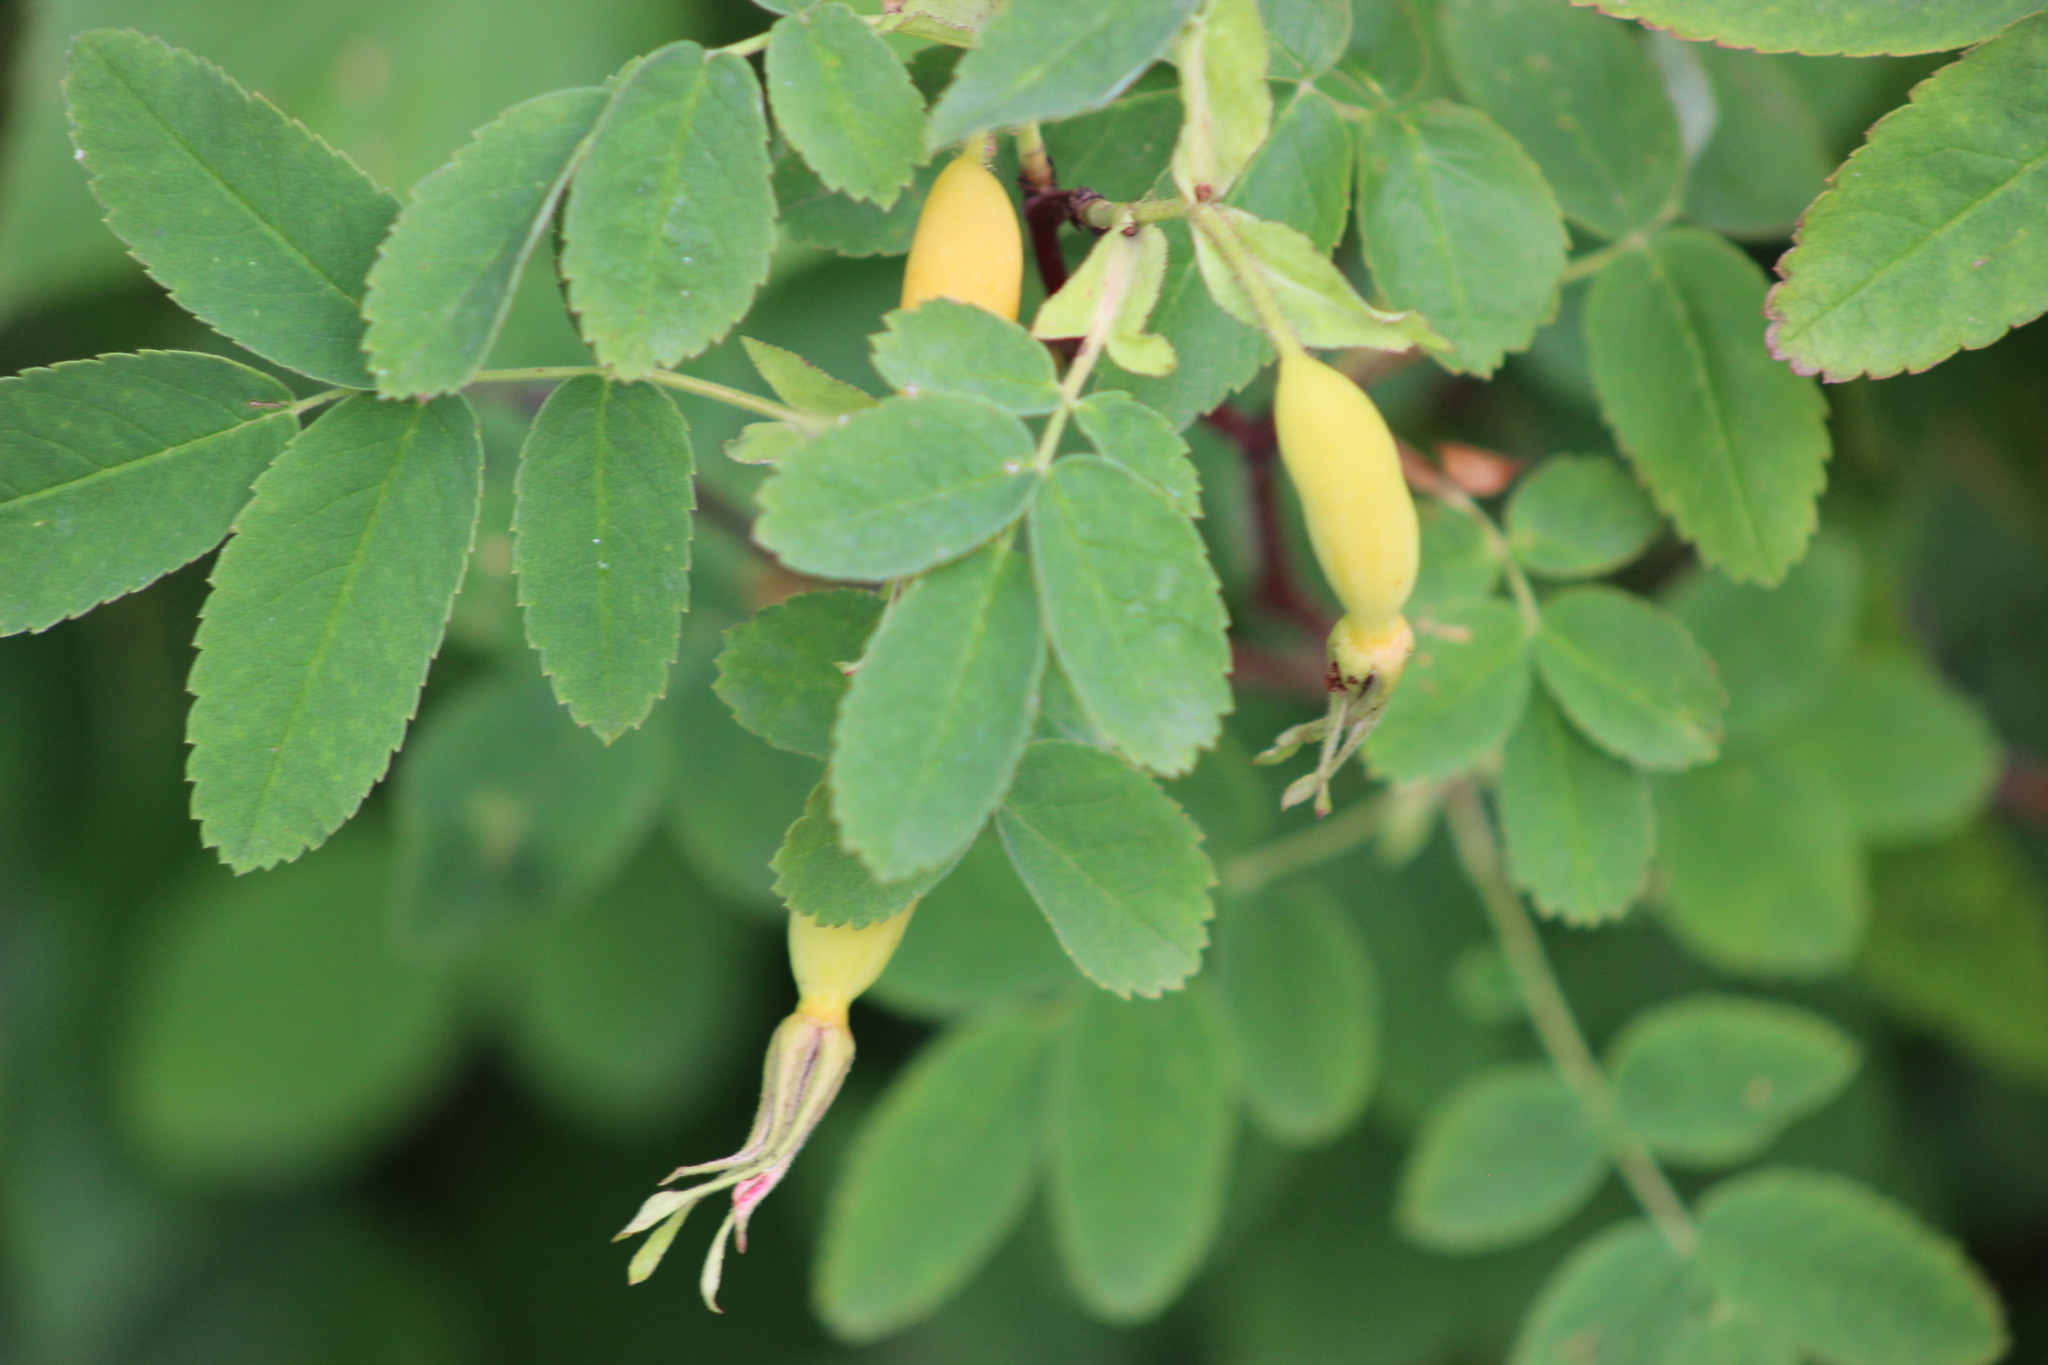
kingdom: Plantae
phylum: Tracheophyta
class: Magnoliopsida
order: Rosales
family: Rosaceae
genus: Rosa
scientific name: Rosa acicularis
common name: Prickly rose
